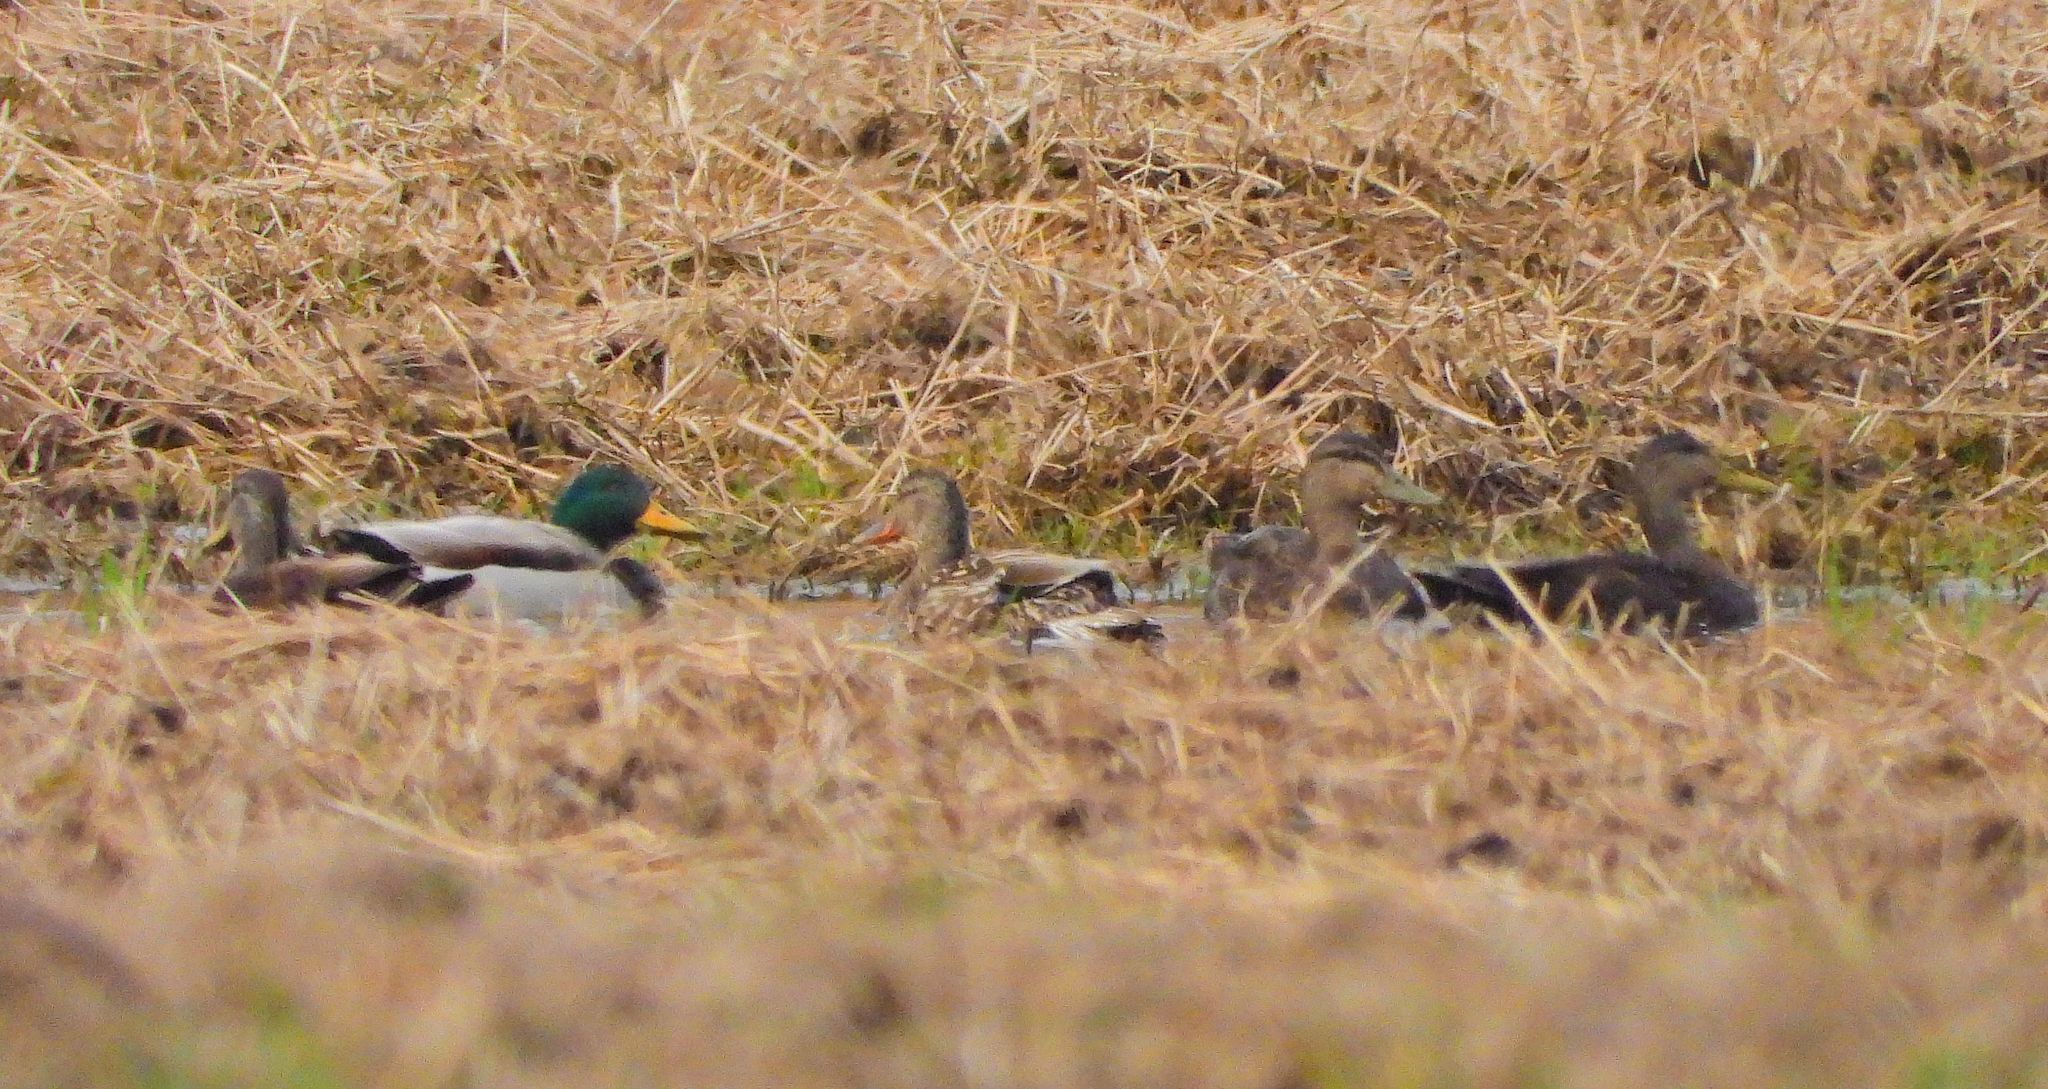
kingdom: Animalia
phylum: Chordata
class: Aves
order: Anseriformes
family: Anatidae
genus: Anas
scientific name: Anas platyrhynchos
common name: Mallard
